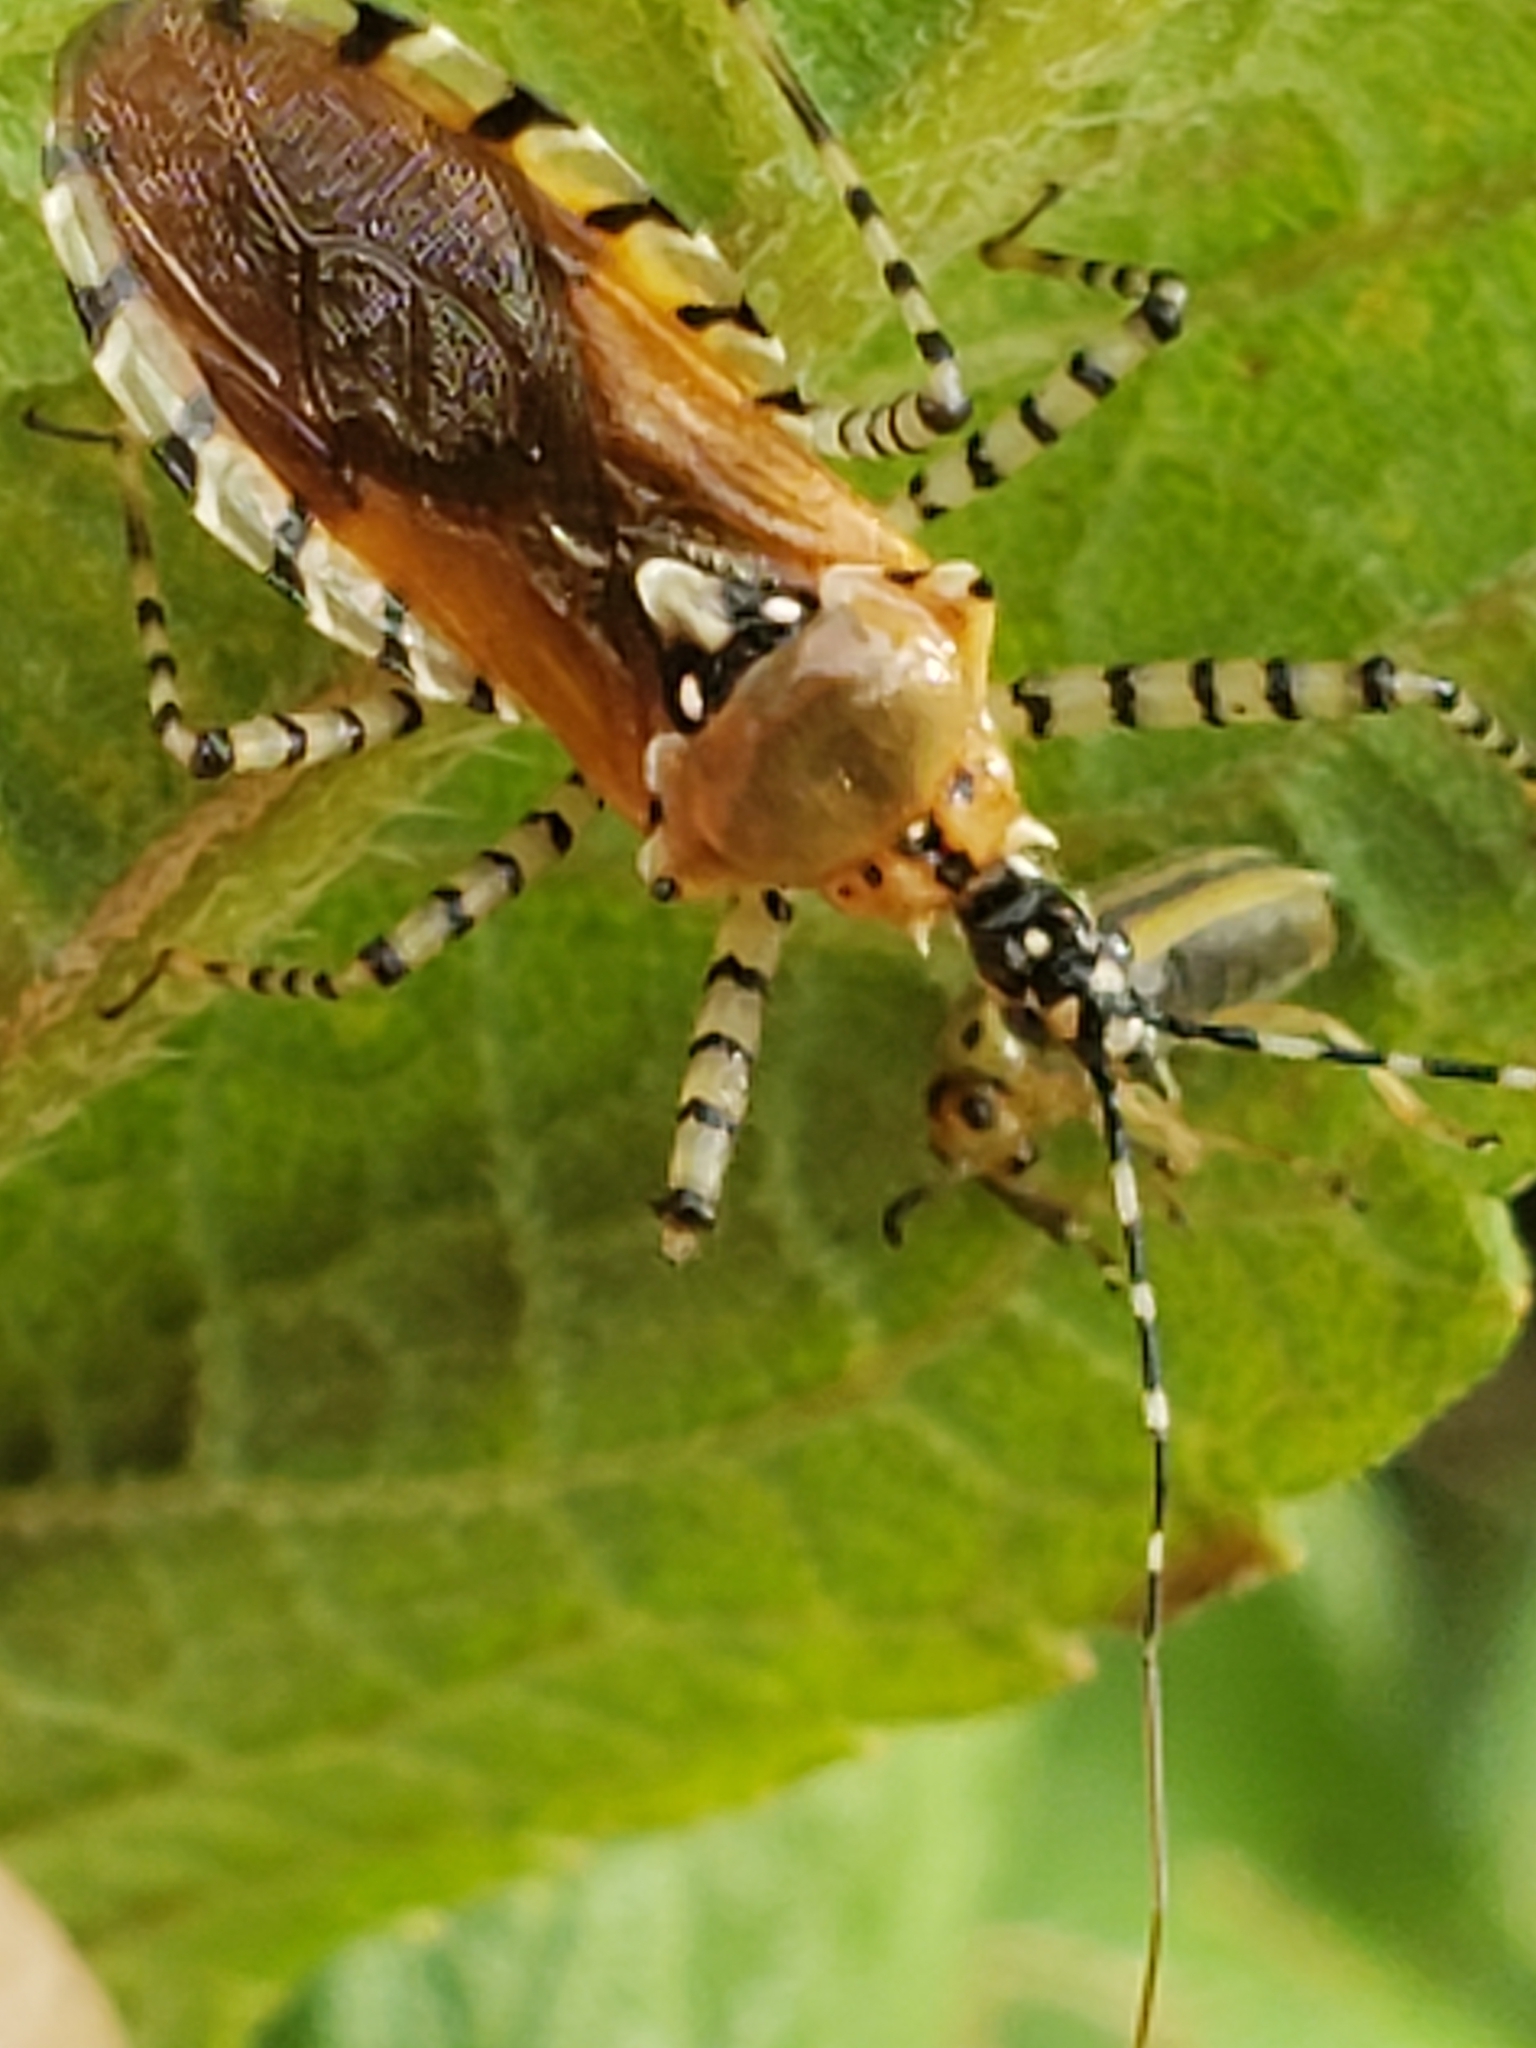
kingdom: Animalia
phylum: Arthropoda
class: Insecta
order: Hemiptera
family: Reduviidae
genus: Pselliopus
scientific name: Pselliopus cinctus
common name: Ringed assassin bug
